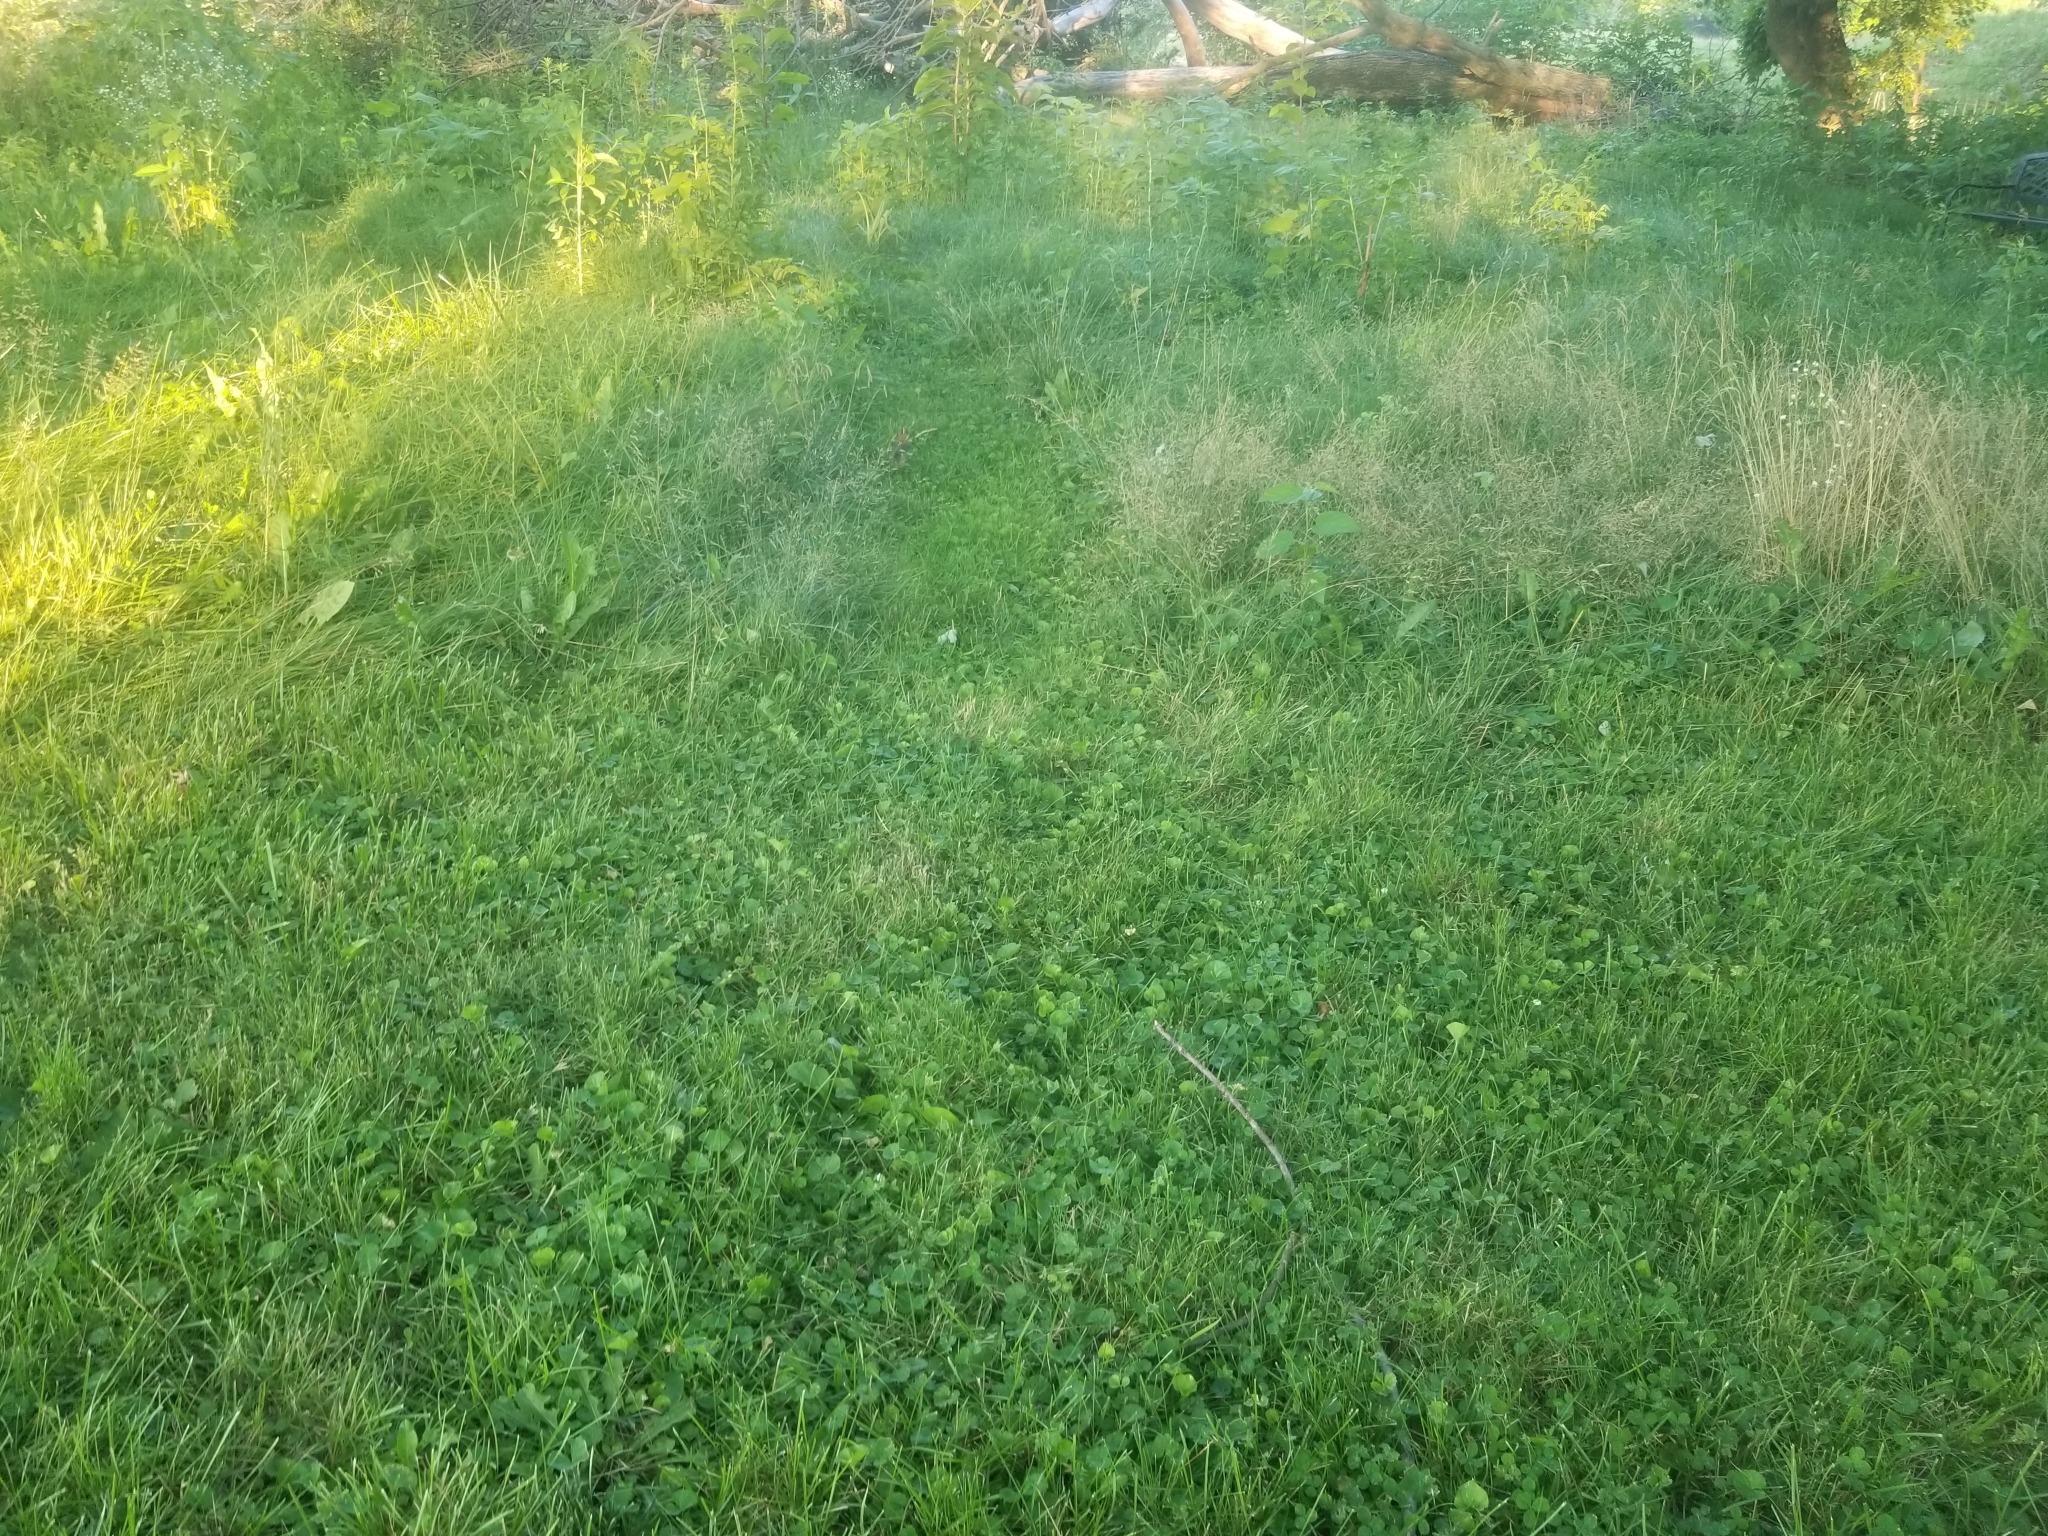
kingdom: Animalia
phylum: Chordata
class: Mammalia
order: Lagomorpha
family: Leporidae
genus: Sylvilagus
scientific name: Sylvilagus floridanus
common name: Eastern cottontail
